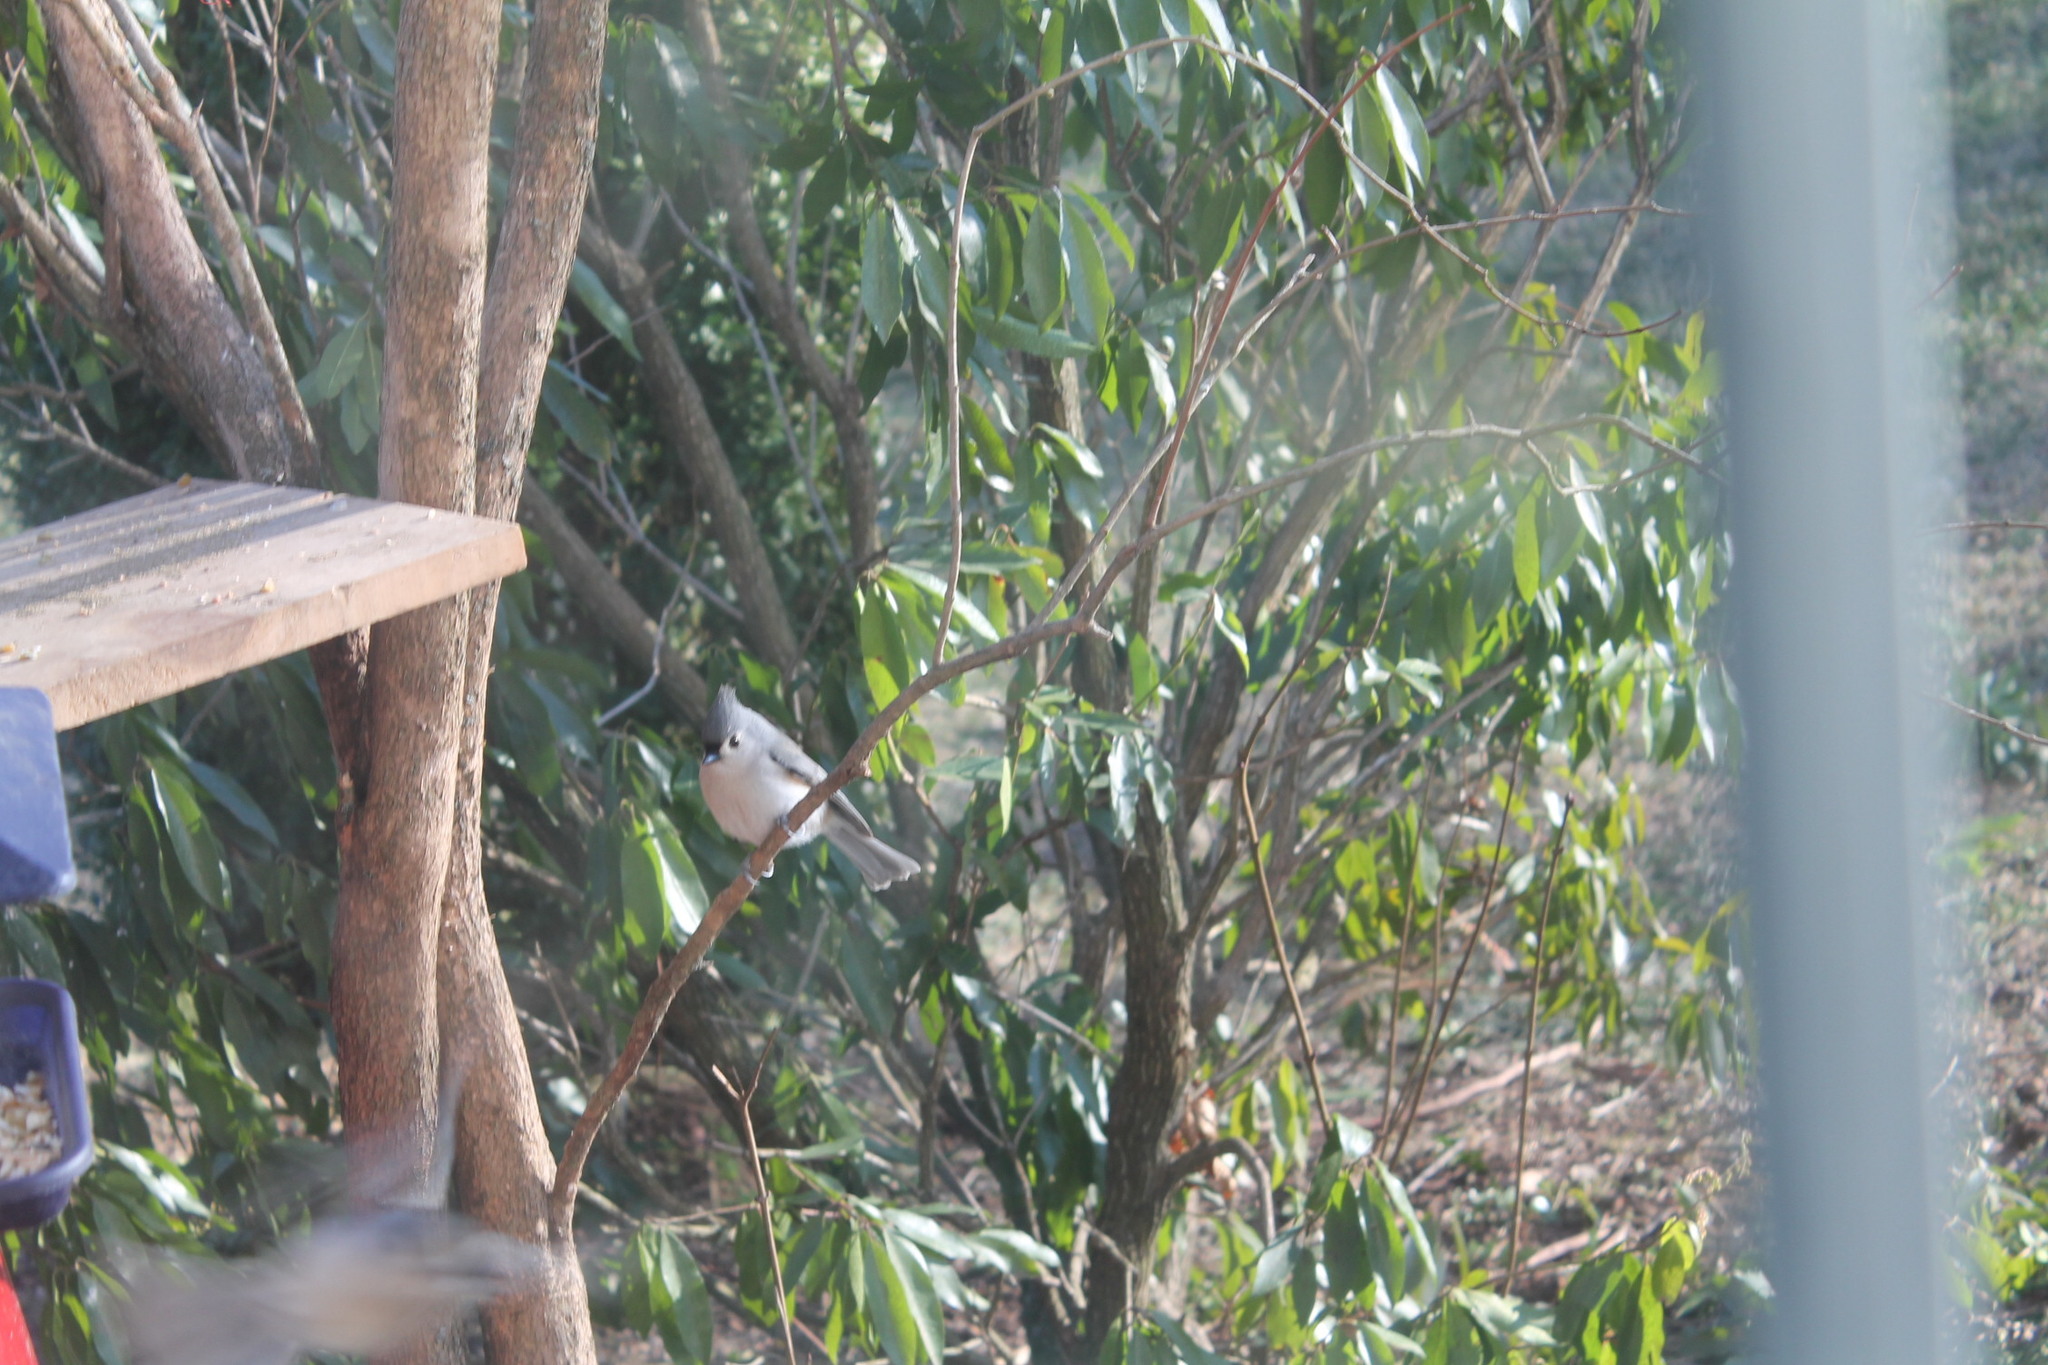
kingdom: Animalia
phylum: Chordata
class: Aves
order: Passeriformes
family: Paridae
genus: Baeolophus
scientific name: Baeolophus bicolor
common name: Tufted titmouse
